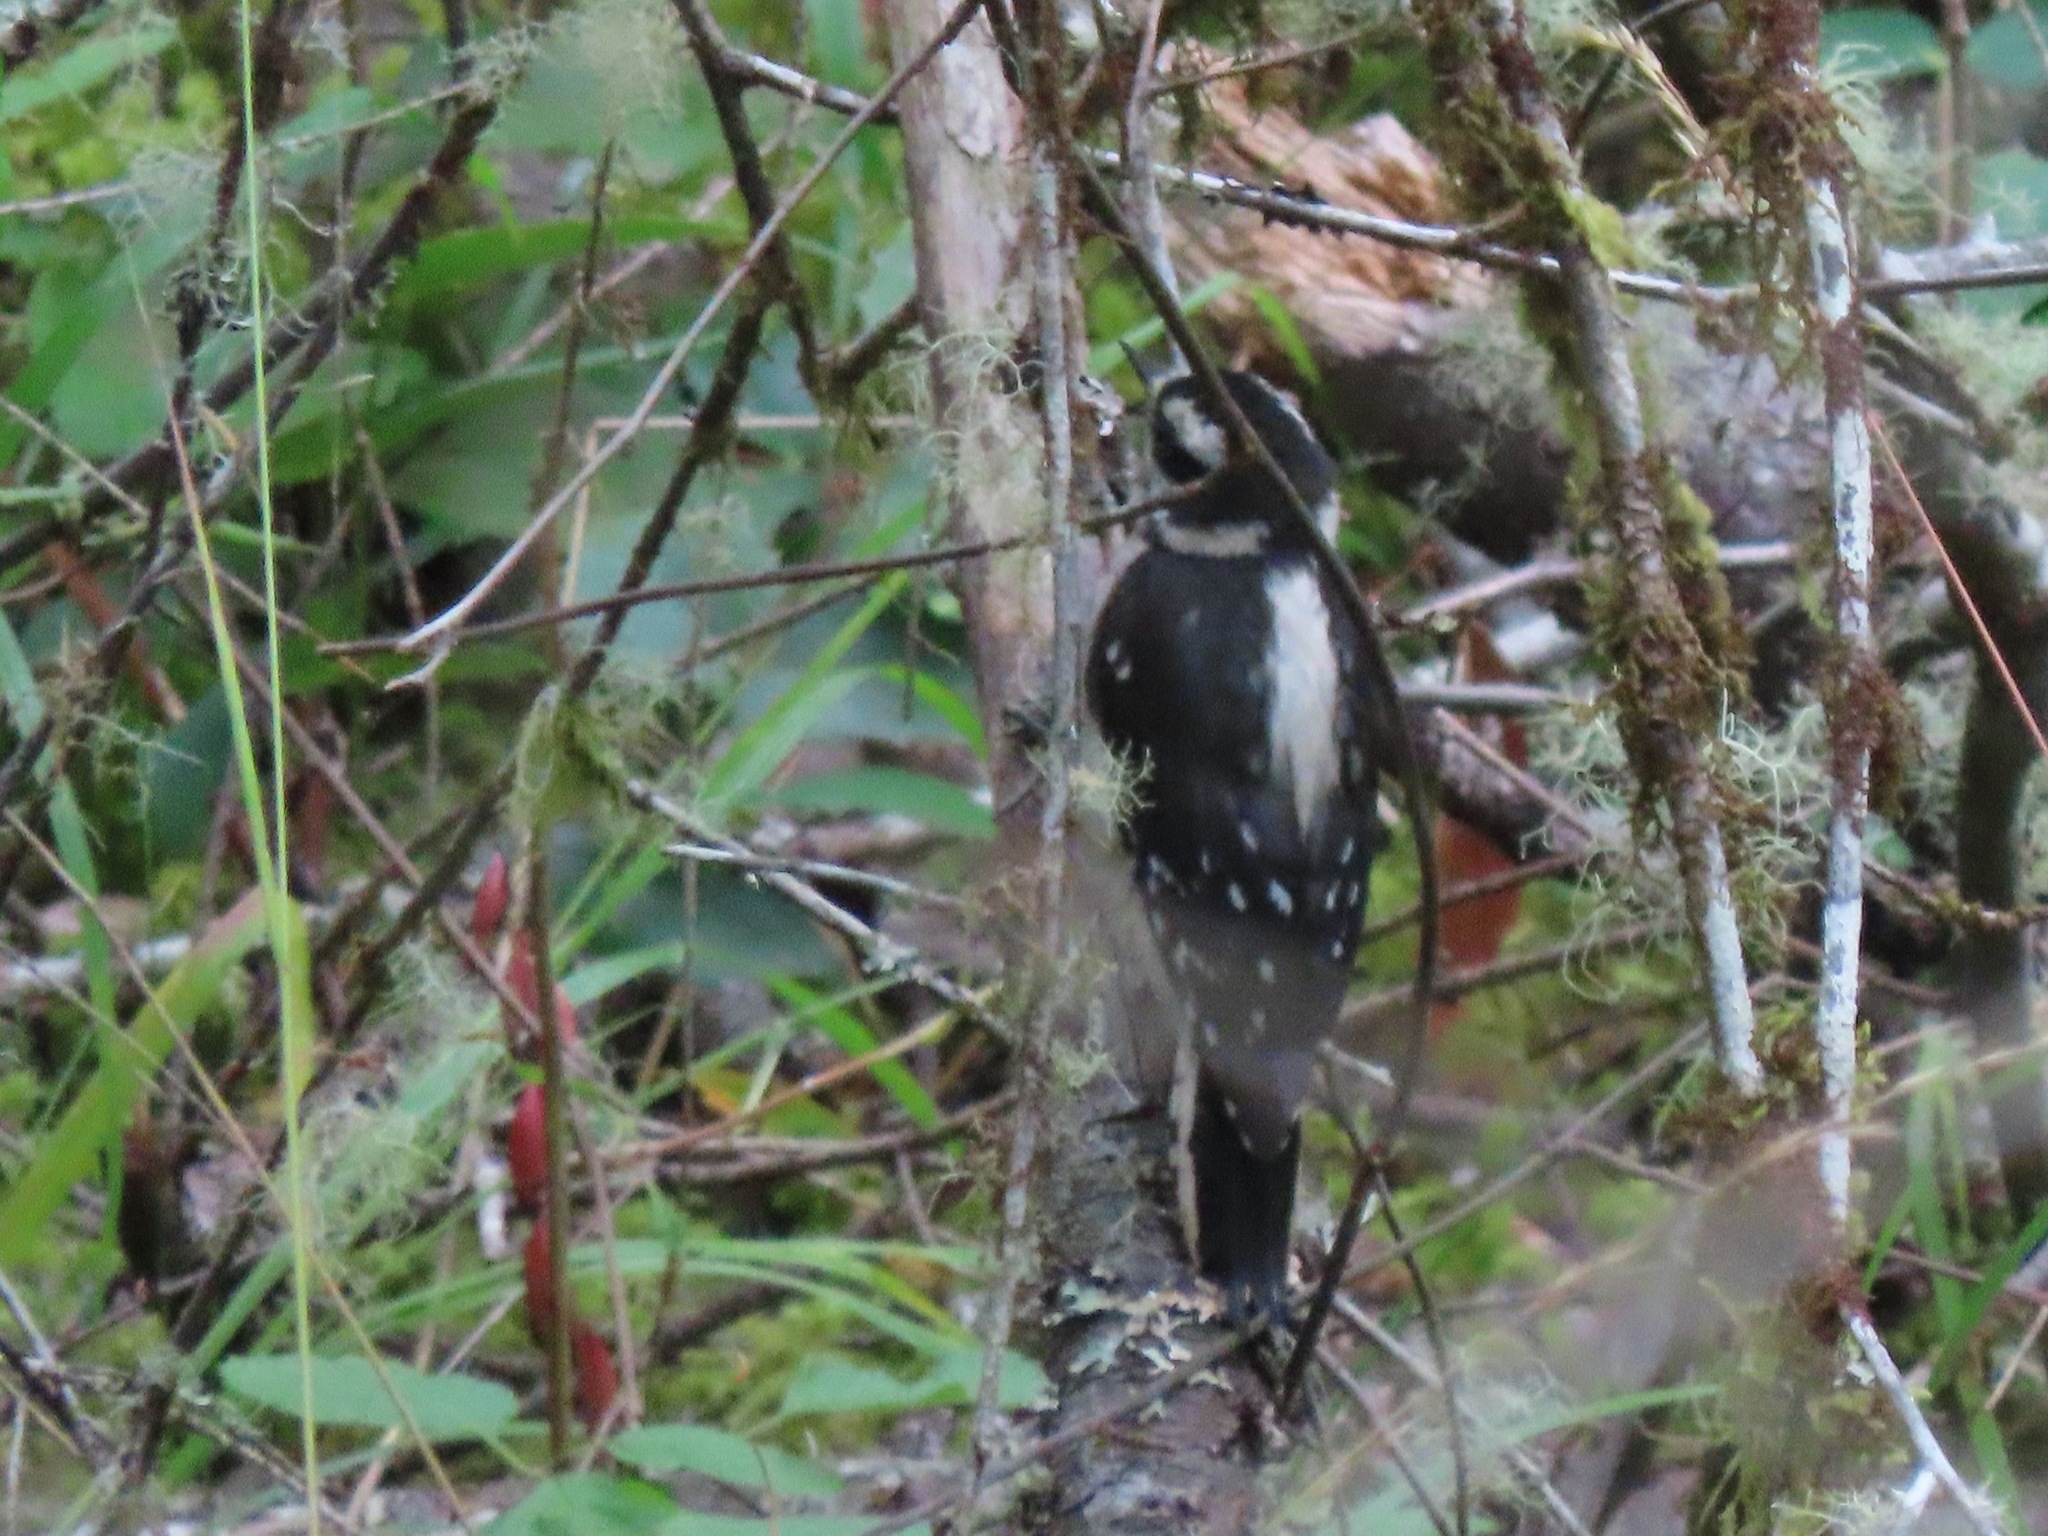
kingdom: Animalia
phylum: Chordata
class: Aves
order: Piciformes
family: Picidae
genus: Dryobates
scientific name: Dryobates pubescens
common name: Downy woodpecker
